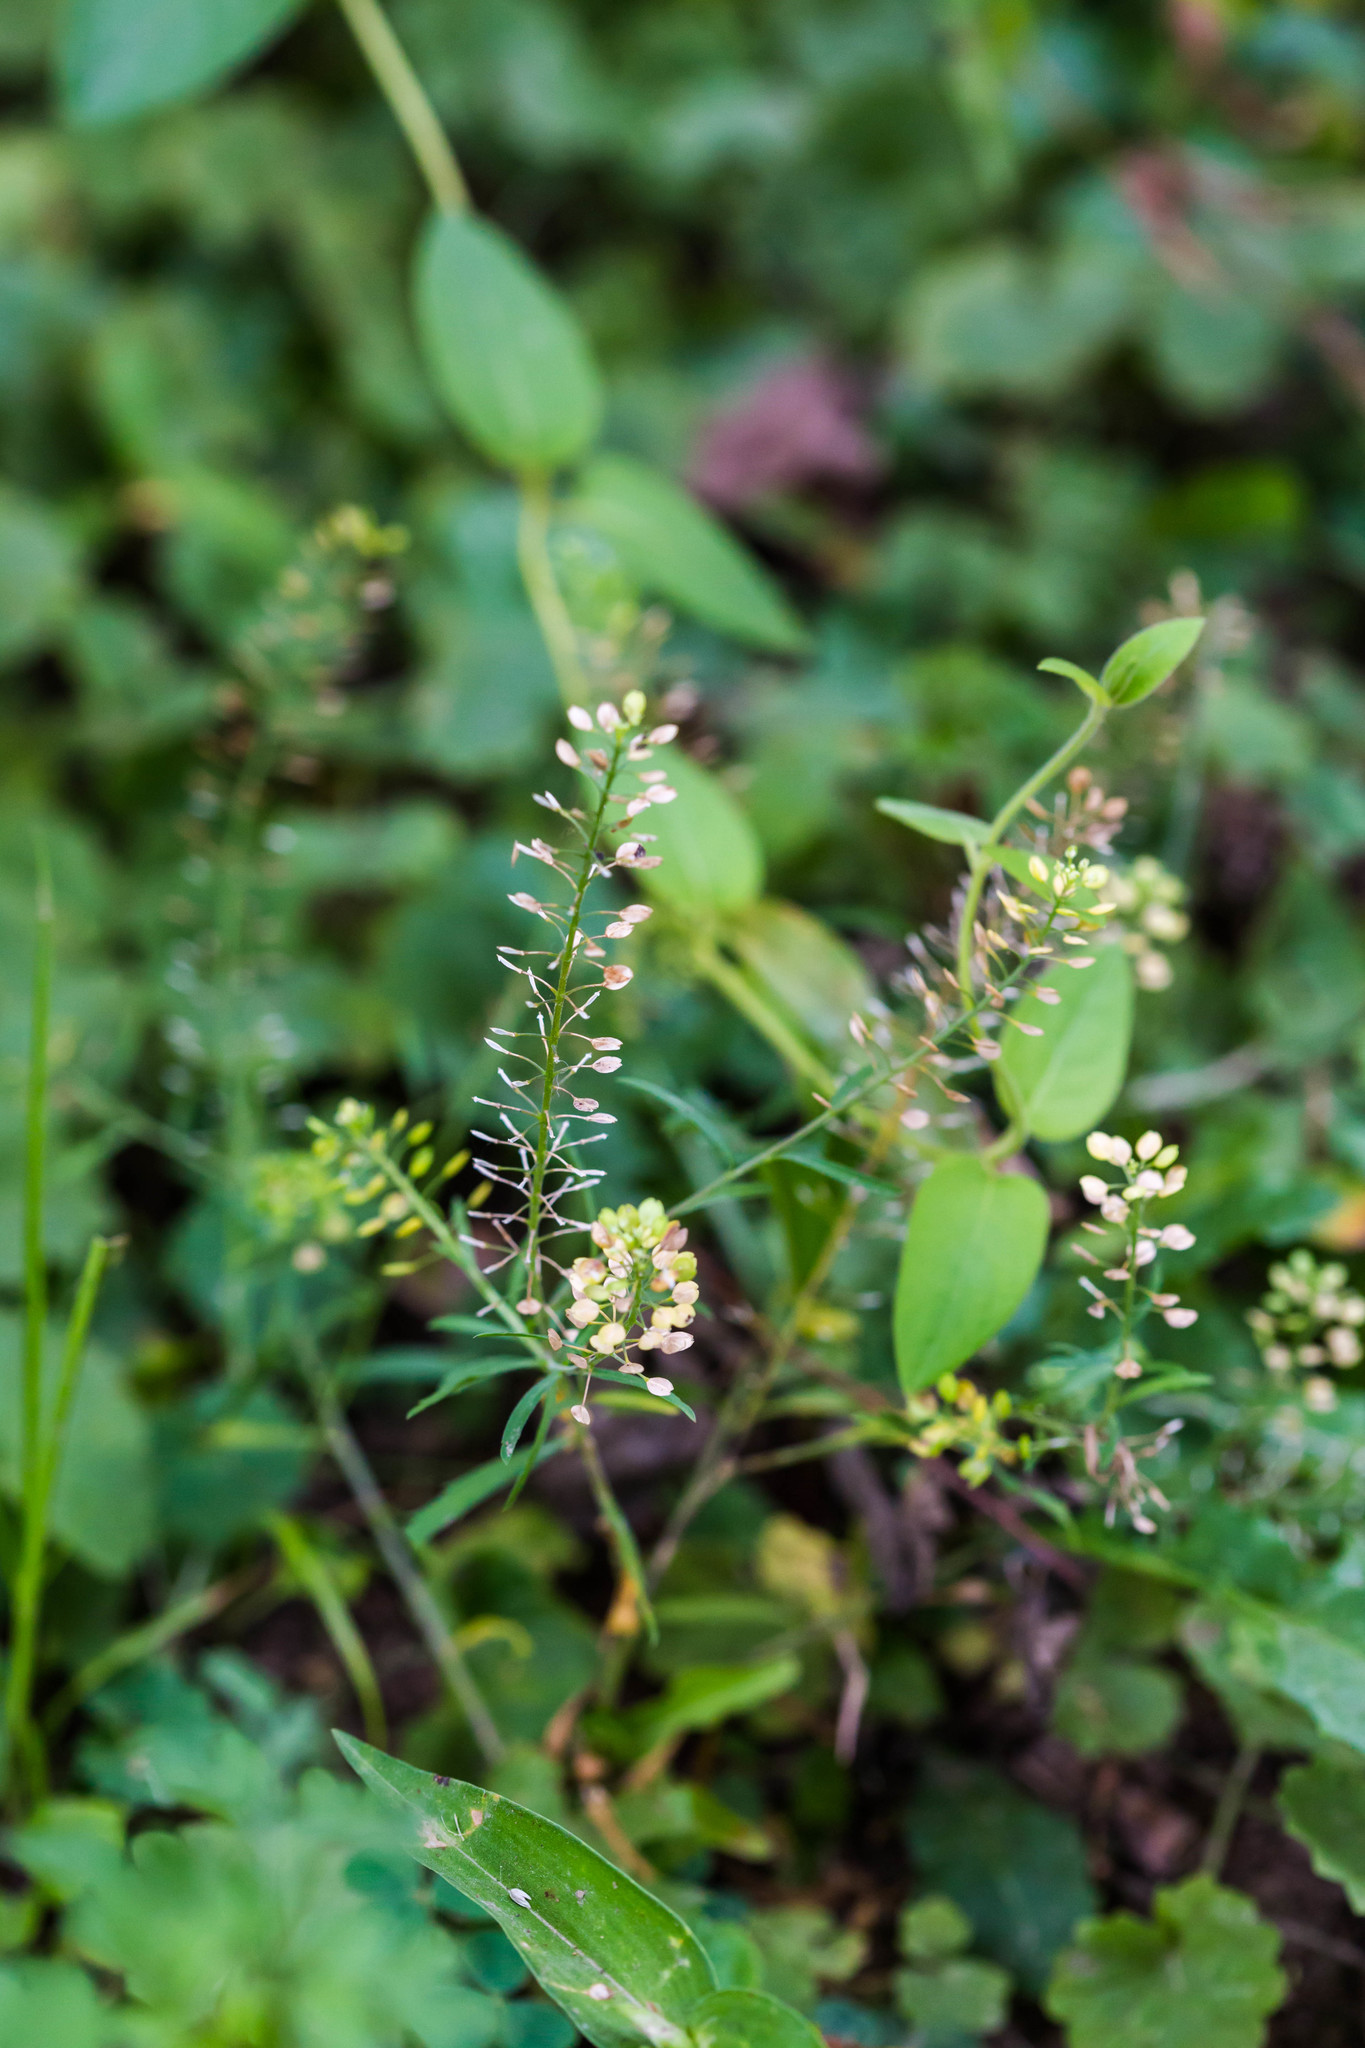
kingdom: Plantae
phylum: Tracheophyta
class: Magnoliopsida
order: Brassicales
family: Brassicaceae
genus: Lepidium
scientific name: Lepidium densiflorum
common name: Miner's pepperwort
